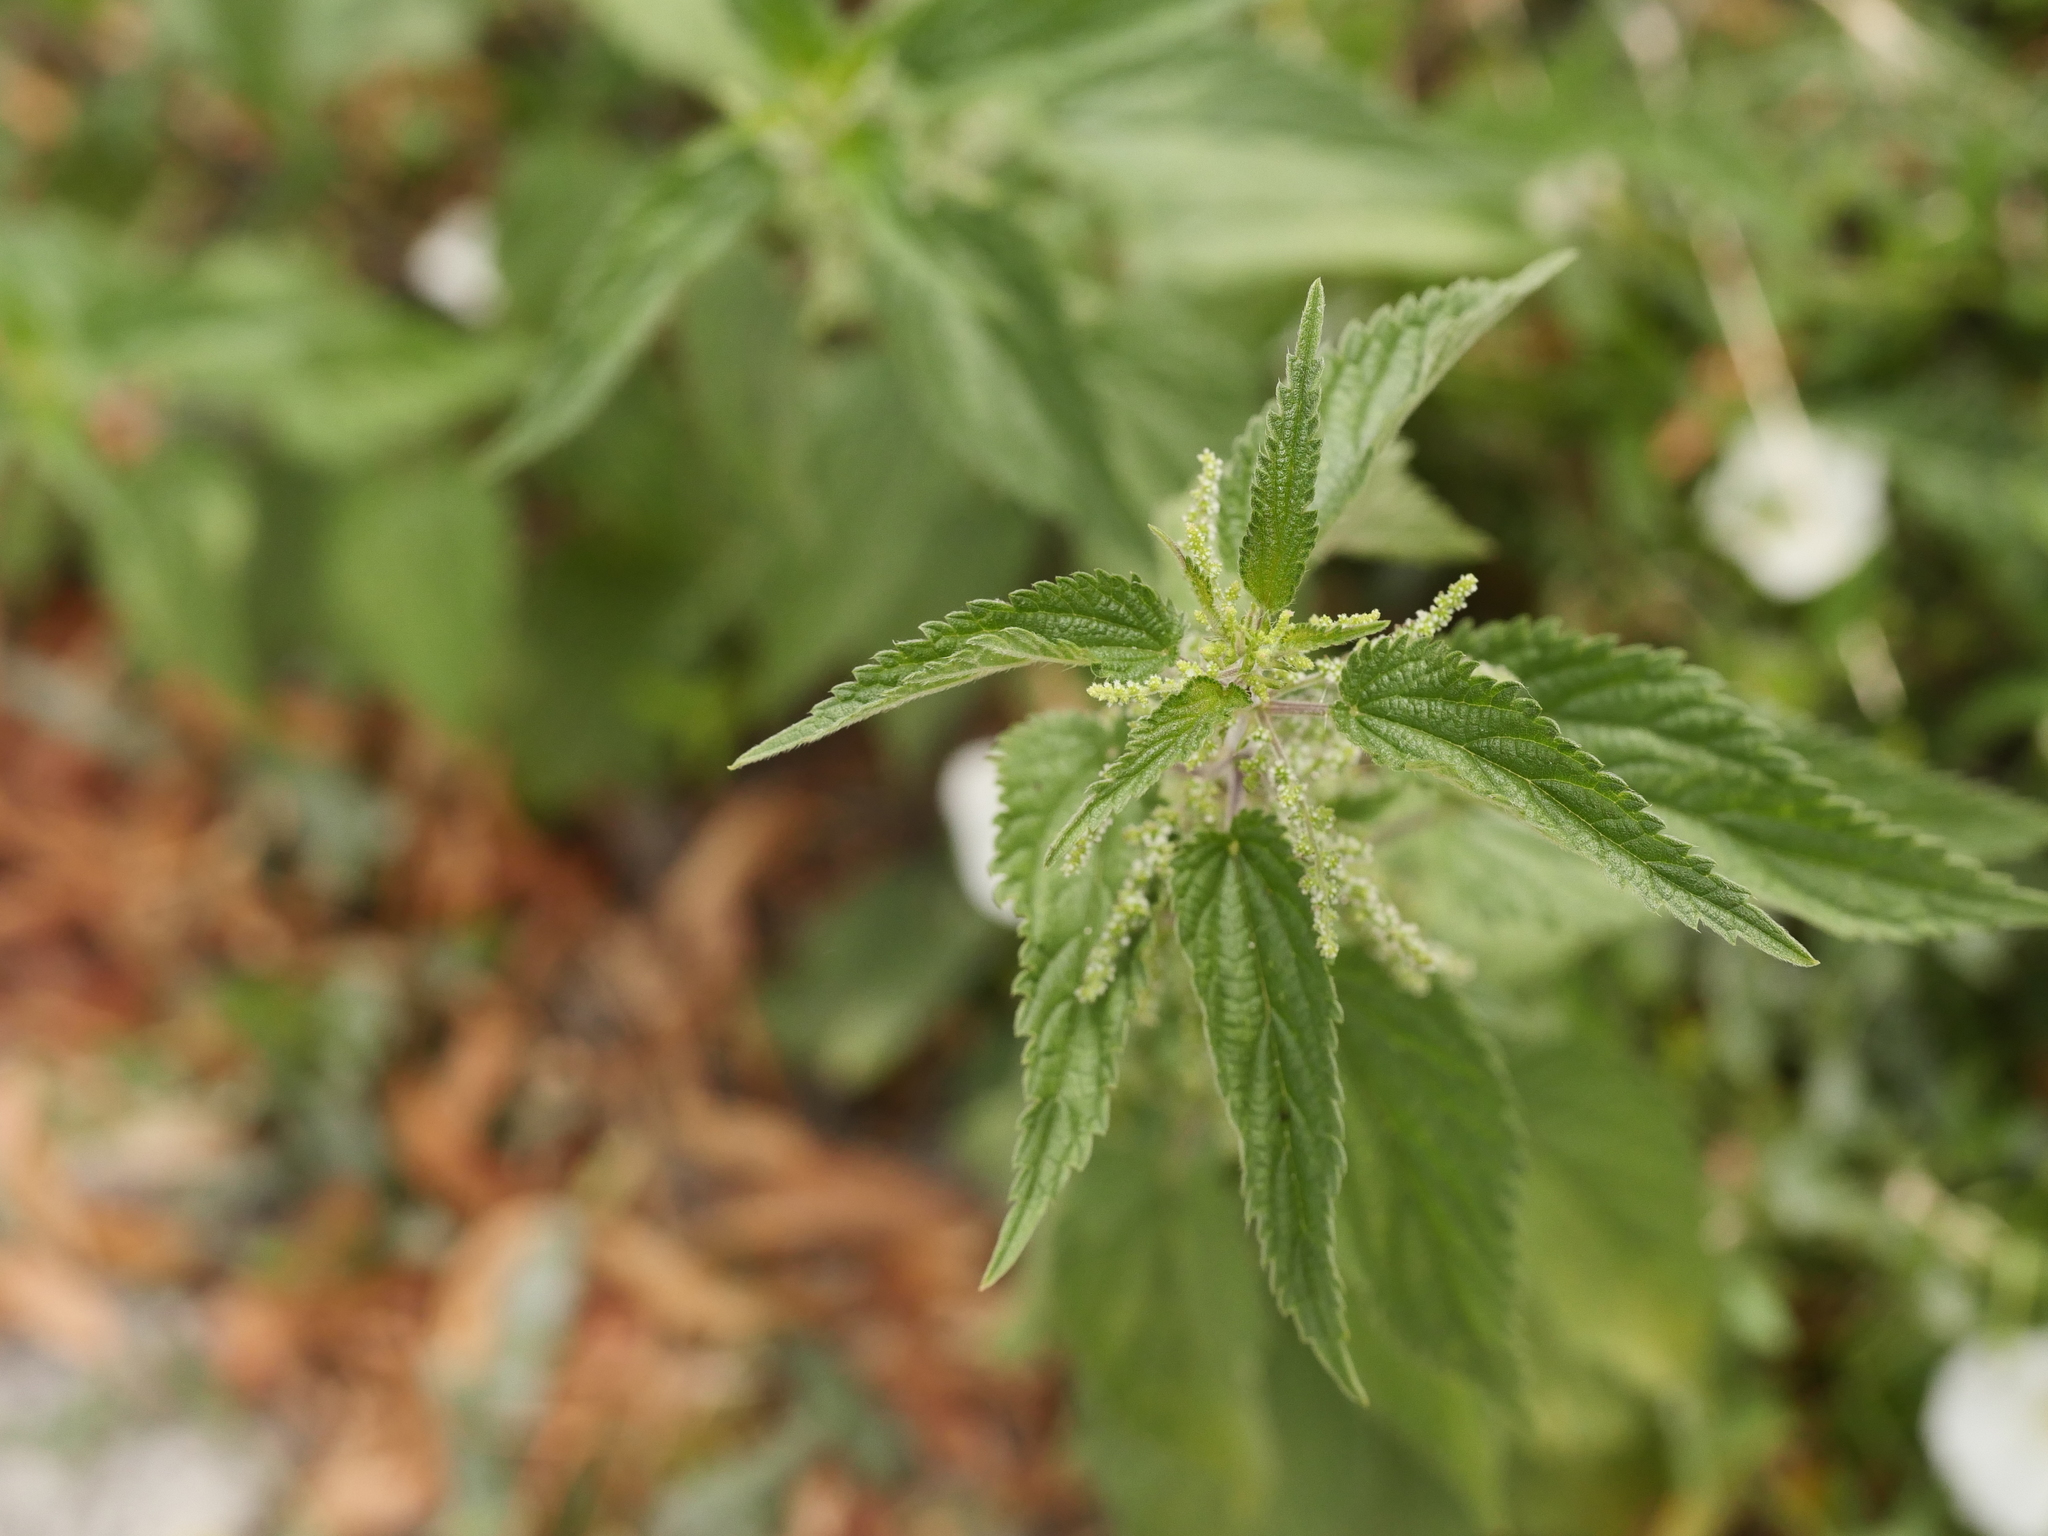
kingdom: Plantae
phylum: Tracheophyta
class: Magnoliopsida
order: Rosales
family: Urticaceae
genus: Urtica
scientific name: Urtica dioica
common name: Common nettle
